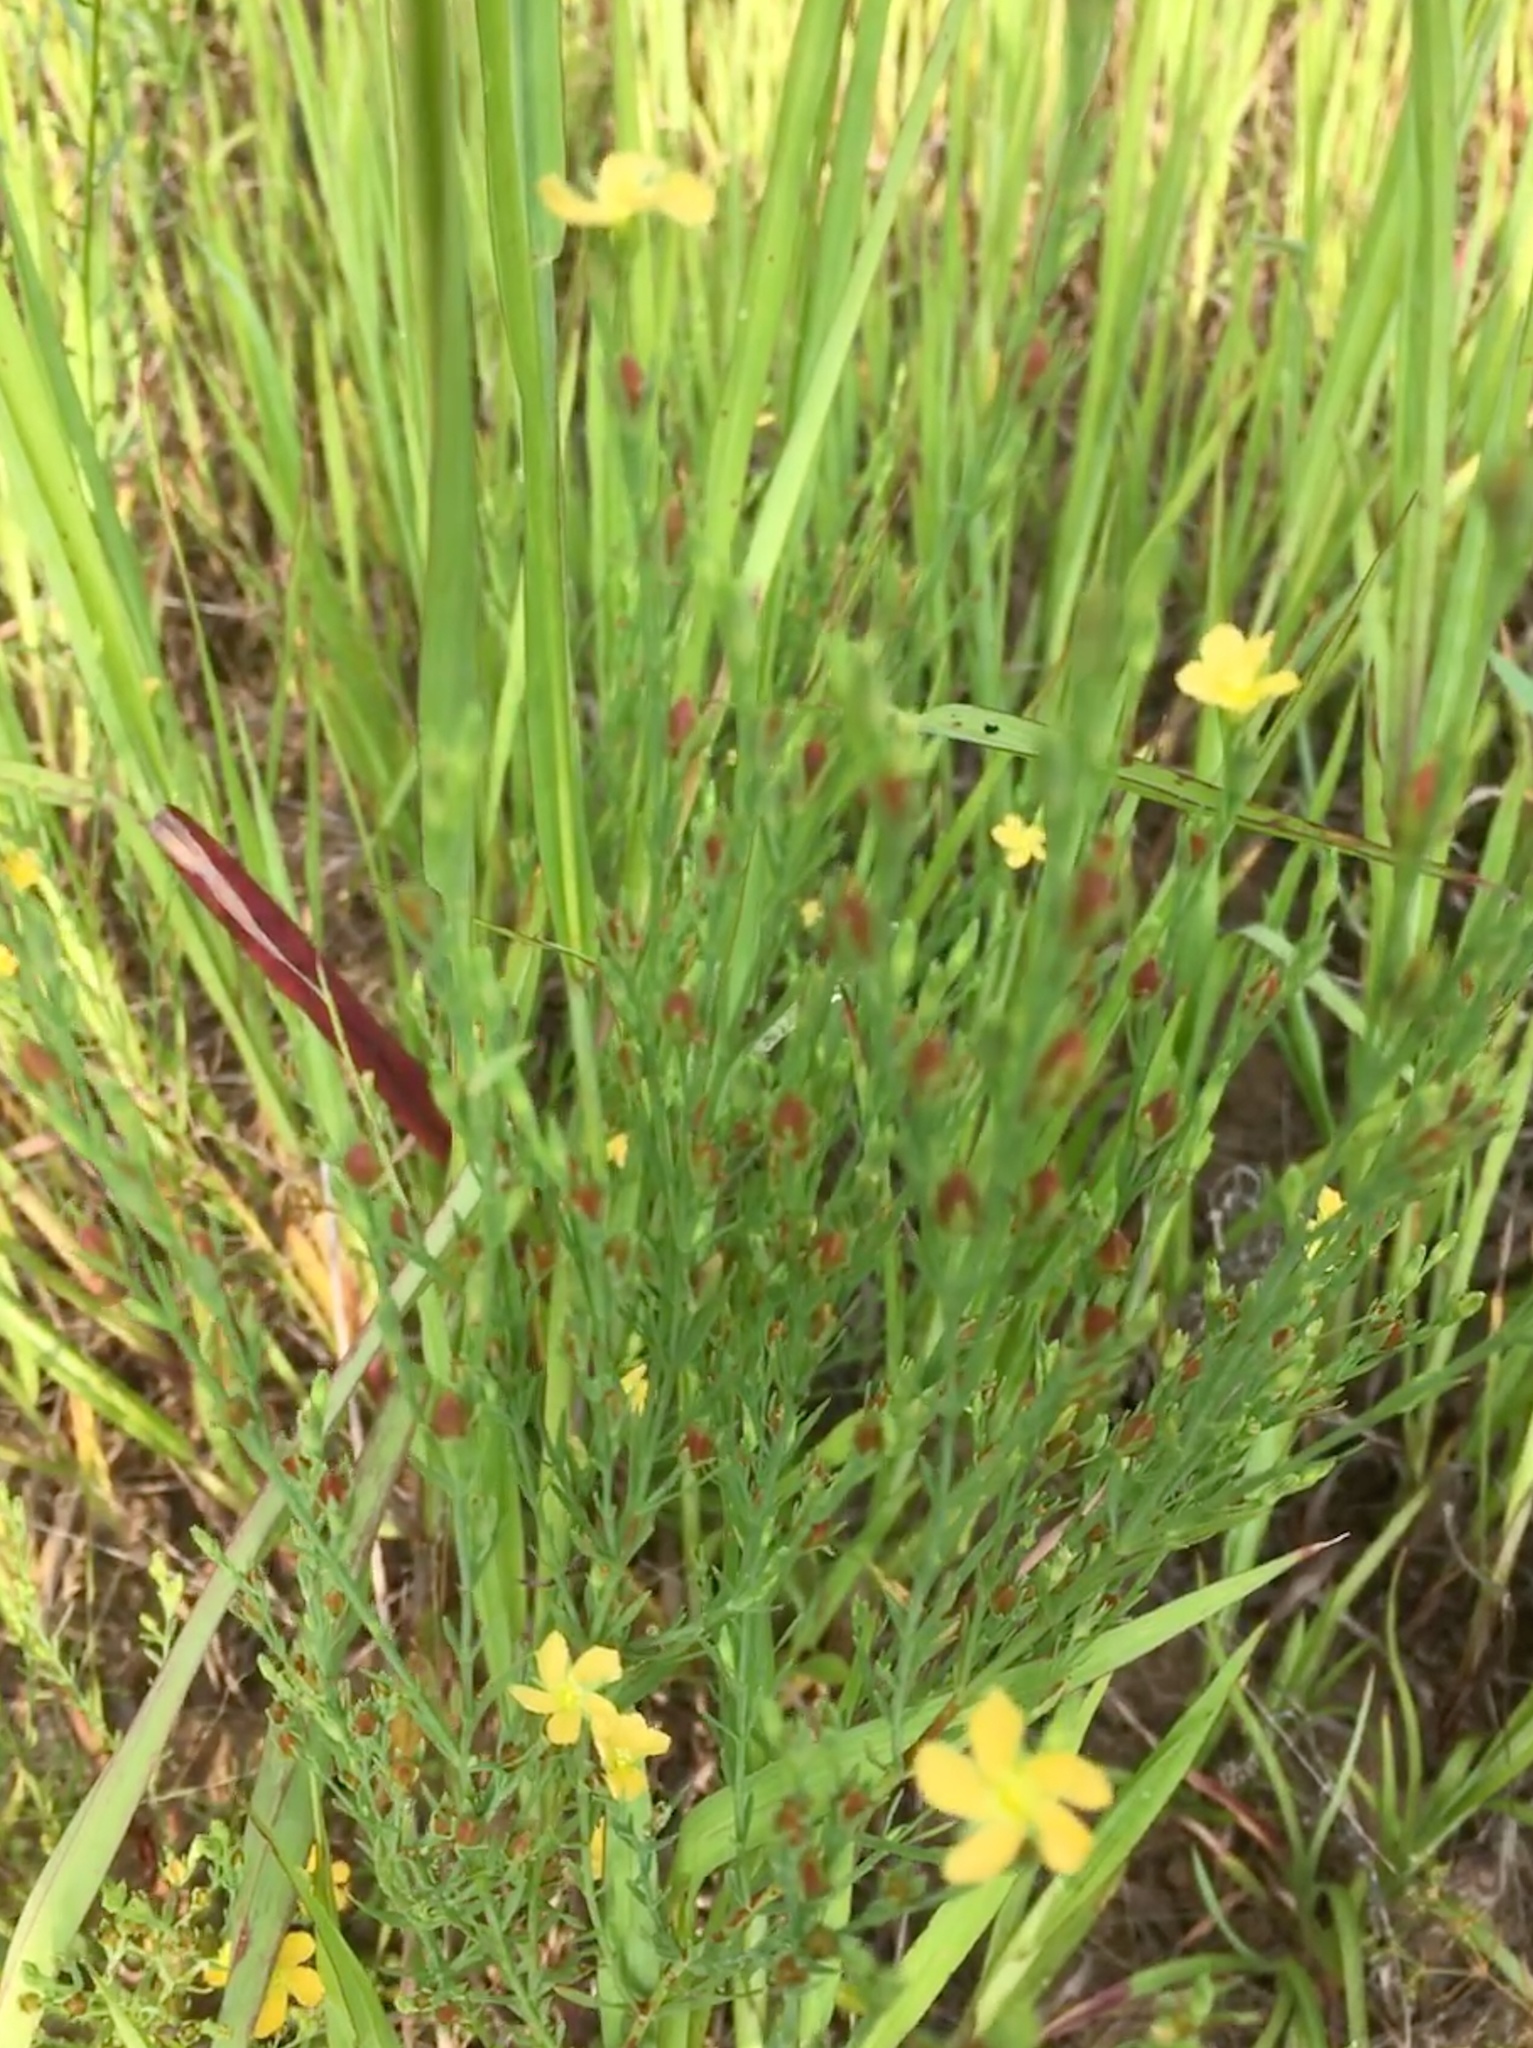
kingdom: Plantae
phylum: Tracheophyta
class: Magnoliopsida
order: Malpighiales
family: Hypericaceae
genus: Hypericum
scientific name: Hypericum drummondii
